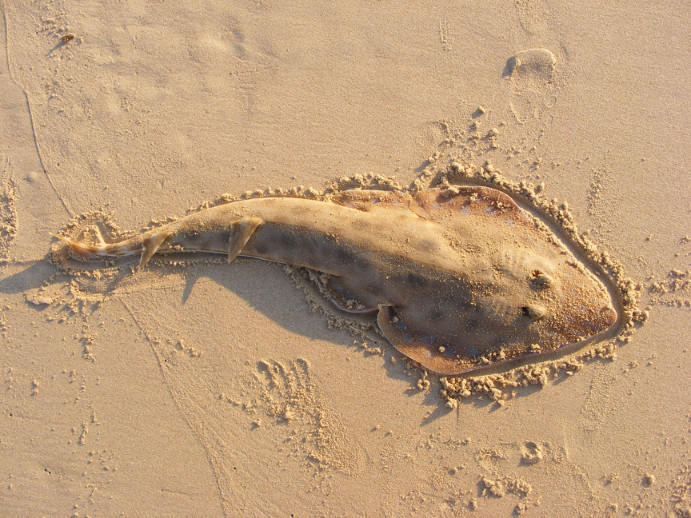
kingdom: Animalia
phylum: Chordata
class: Elasmobranchii
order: Rhinopristiformes
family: Rhinobatidae
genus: Acroteriobatus
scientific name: Acroteriobatus leucospilus
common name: Greyspot guitarfish
